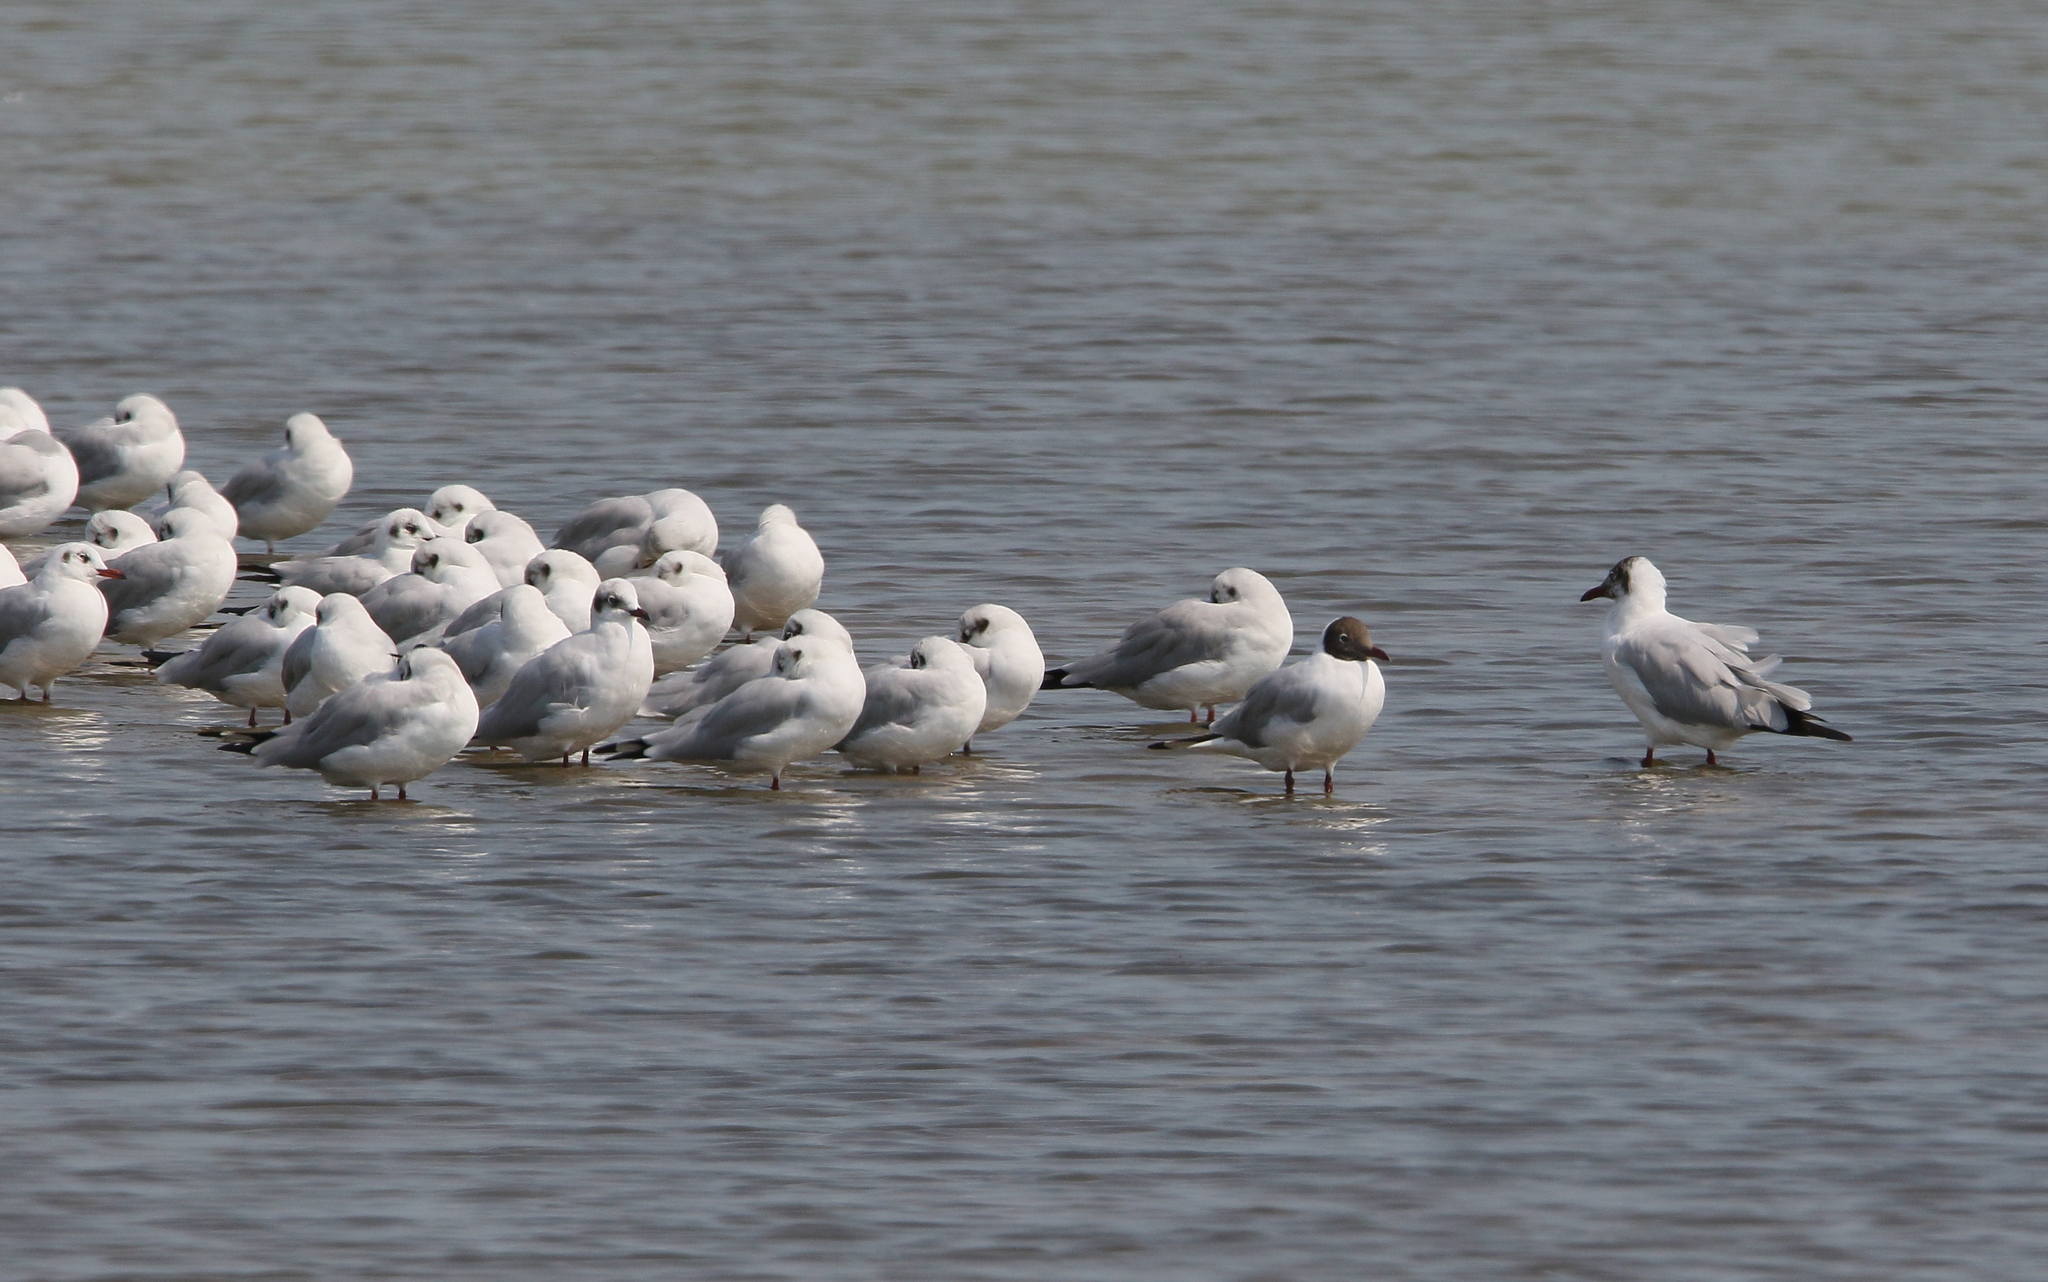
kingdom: Animalia
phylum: Chordata
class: Aves
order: Charadriiformes
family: Laridae
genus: Chroicocephalus
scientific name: Chroicocephalus brunnicephalus
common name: Brown-headed gull
